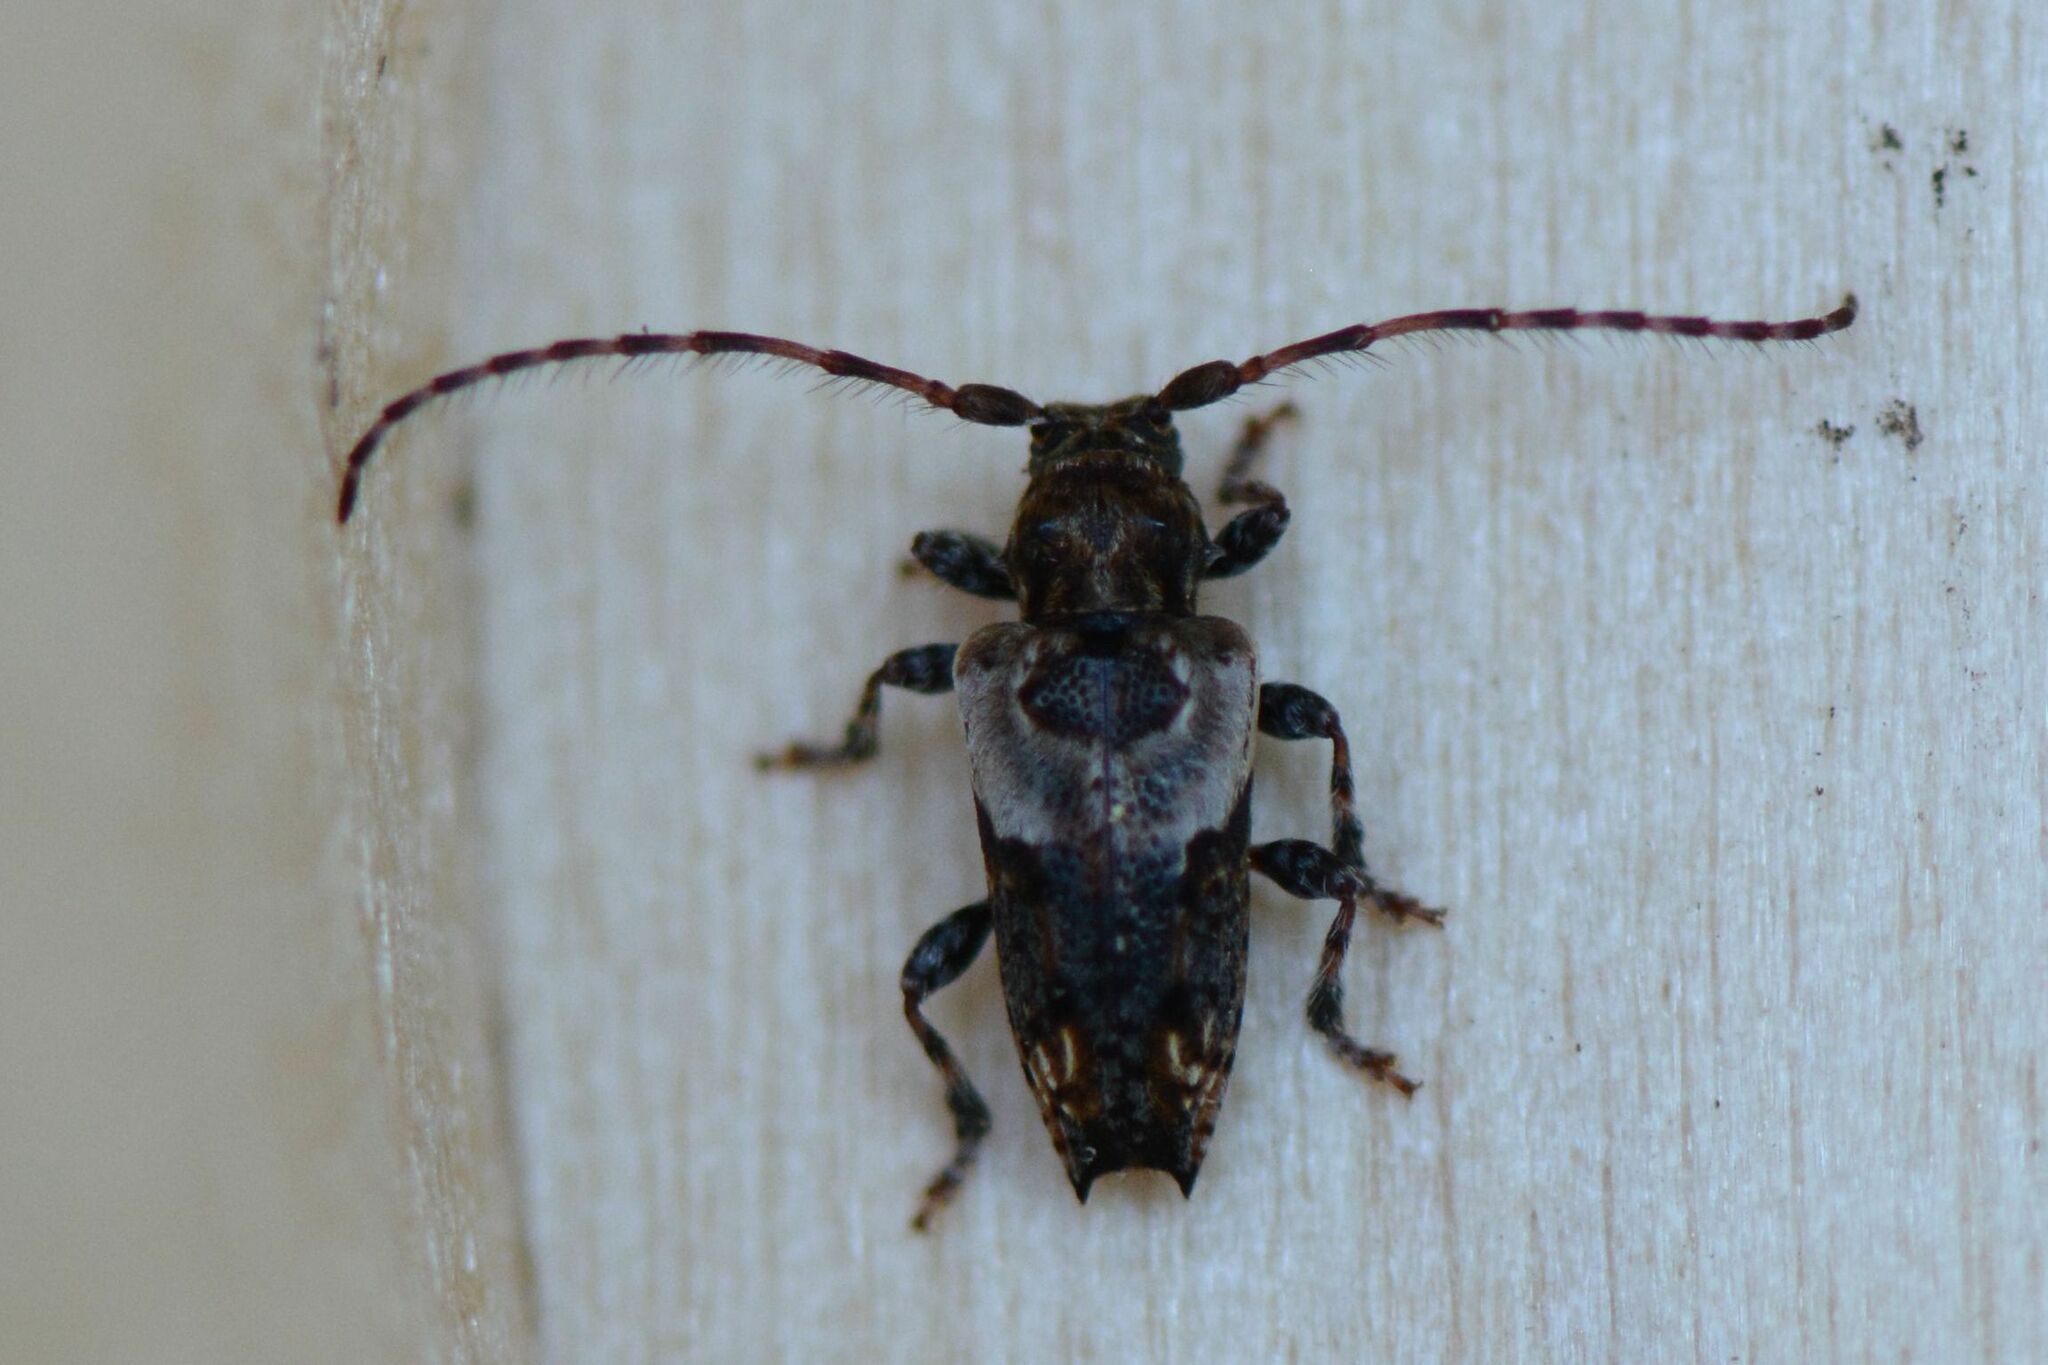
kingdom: Animalia
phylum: Arthropoda
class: Insecta
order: Coleoptera
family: Cerambycidae
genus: Pogonocherus
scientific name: Pogonocherus hispidus
